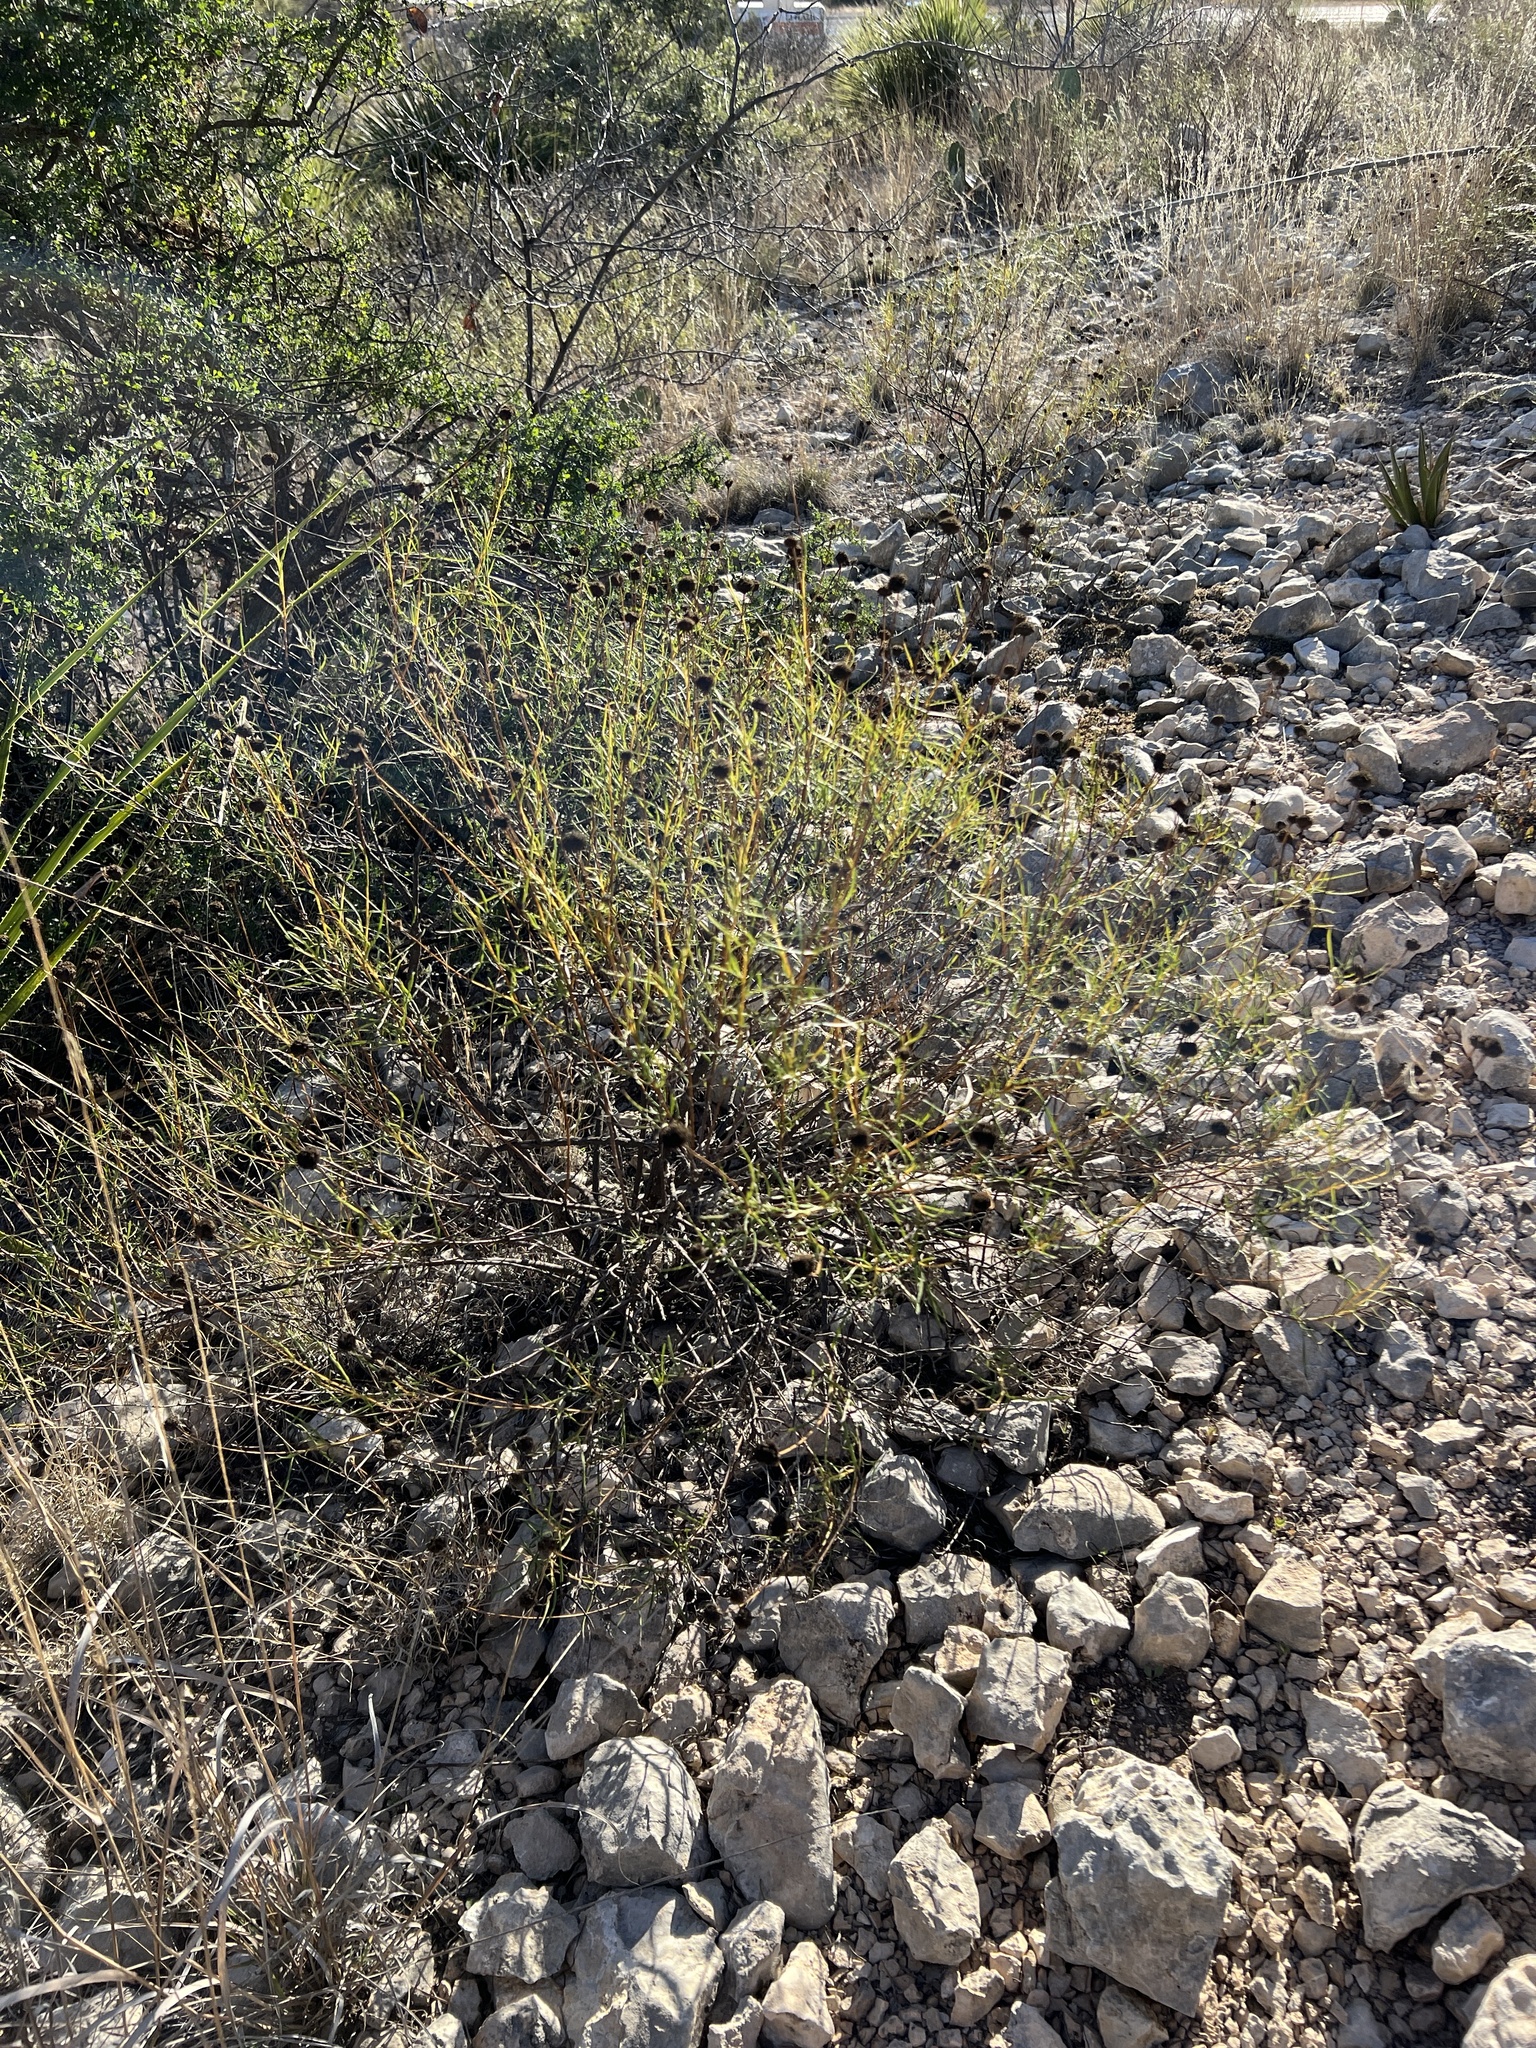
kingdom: Plantae
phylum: Tracheophyta
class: Magnoliopsida
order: Asterales
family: Asteraceae
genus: Sidneya
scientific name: Sidneya tenuifolia
